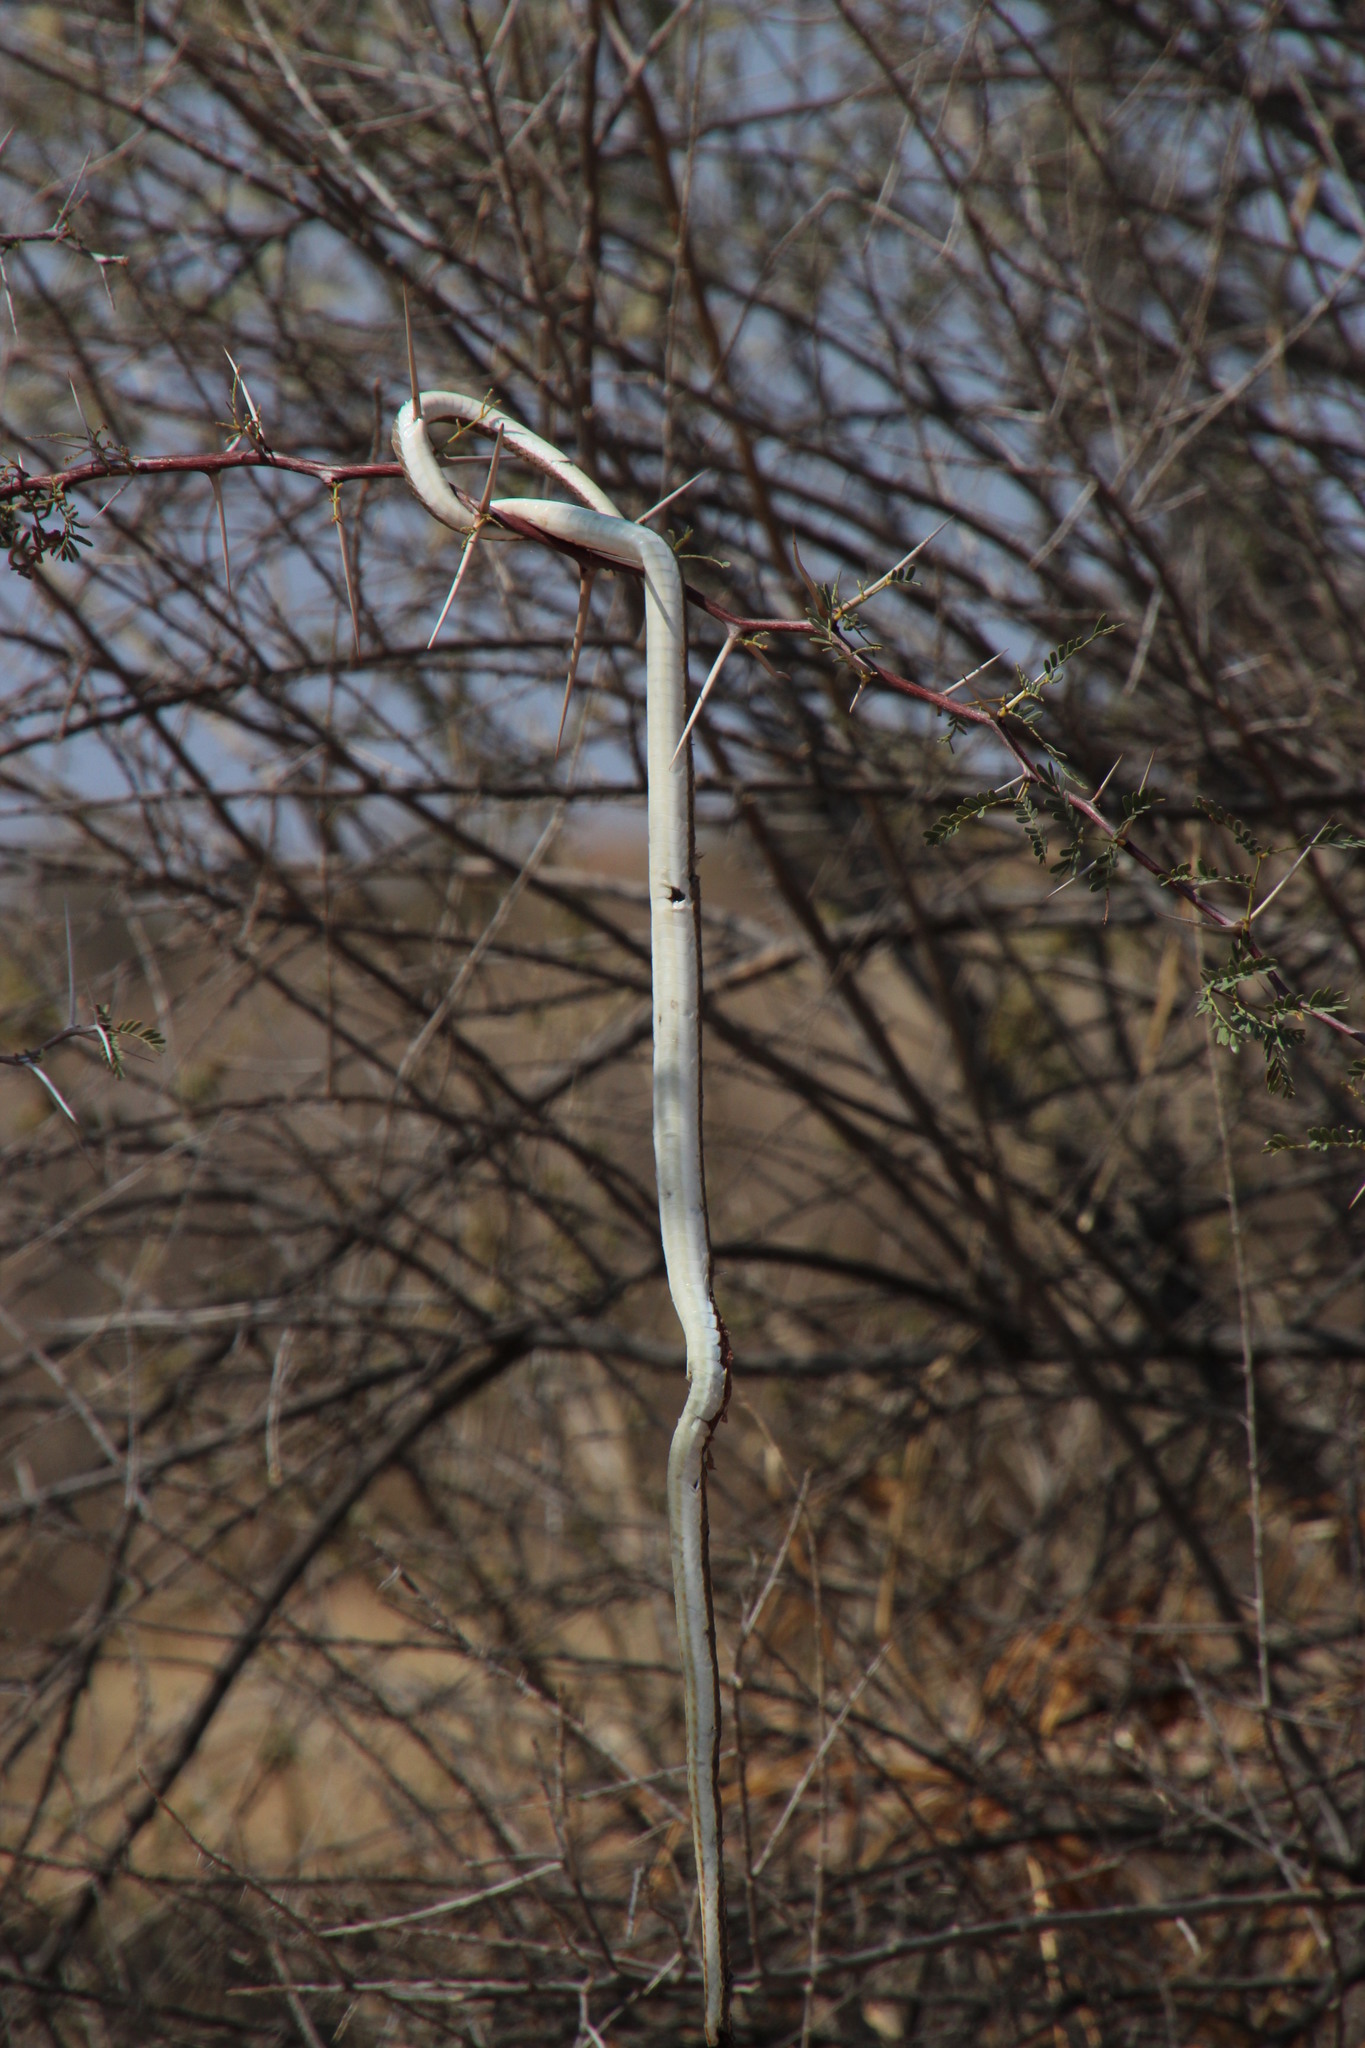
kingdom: Animalia
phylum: Chordata
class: Squamata
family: Psammophiidae
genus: Psammophis
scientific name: Psammophis leightoni
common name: Cape sand snake
